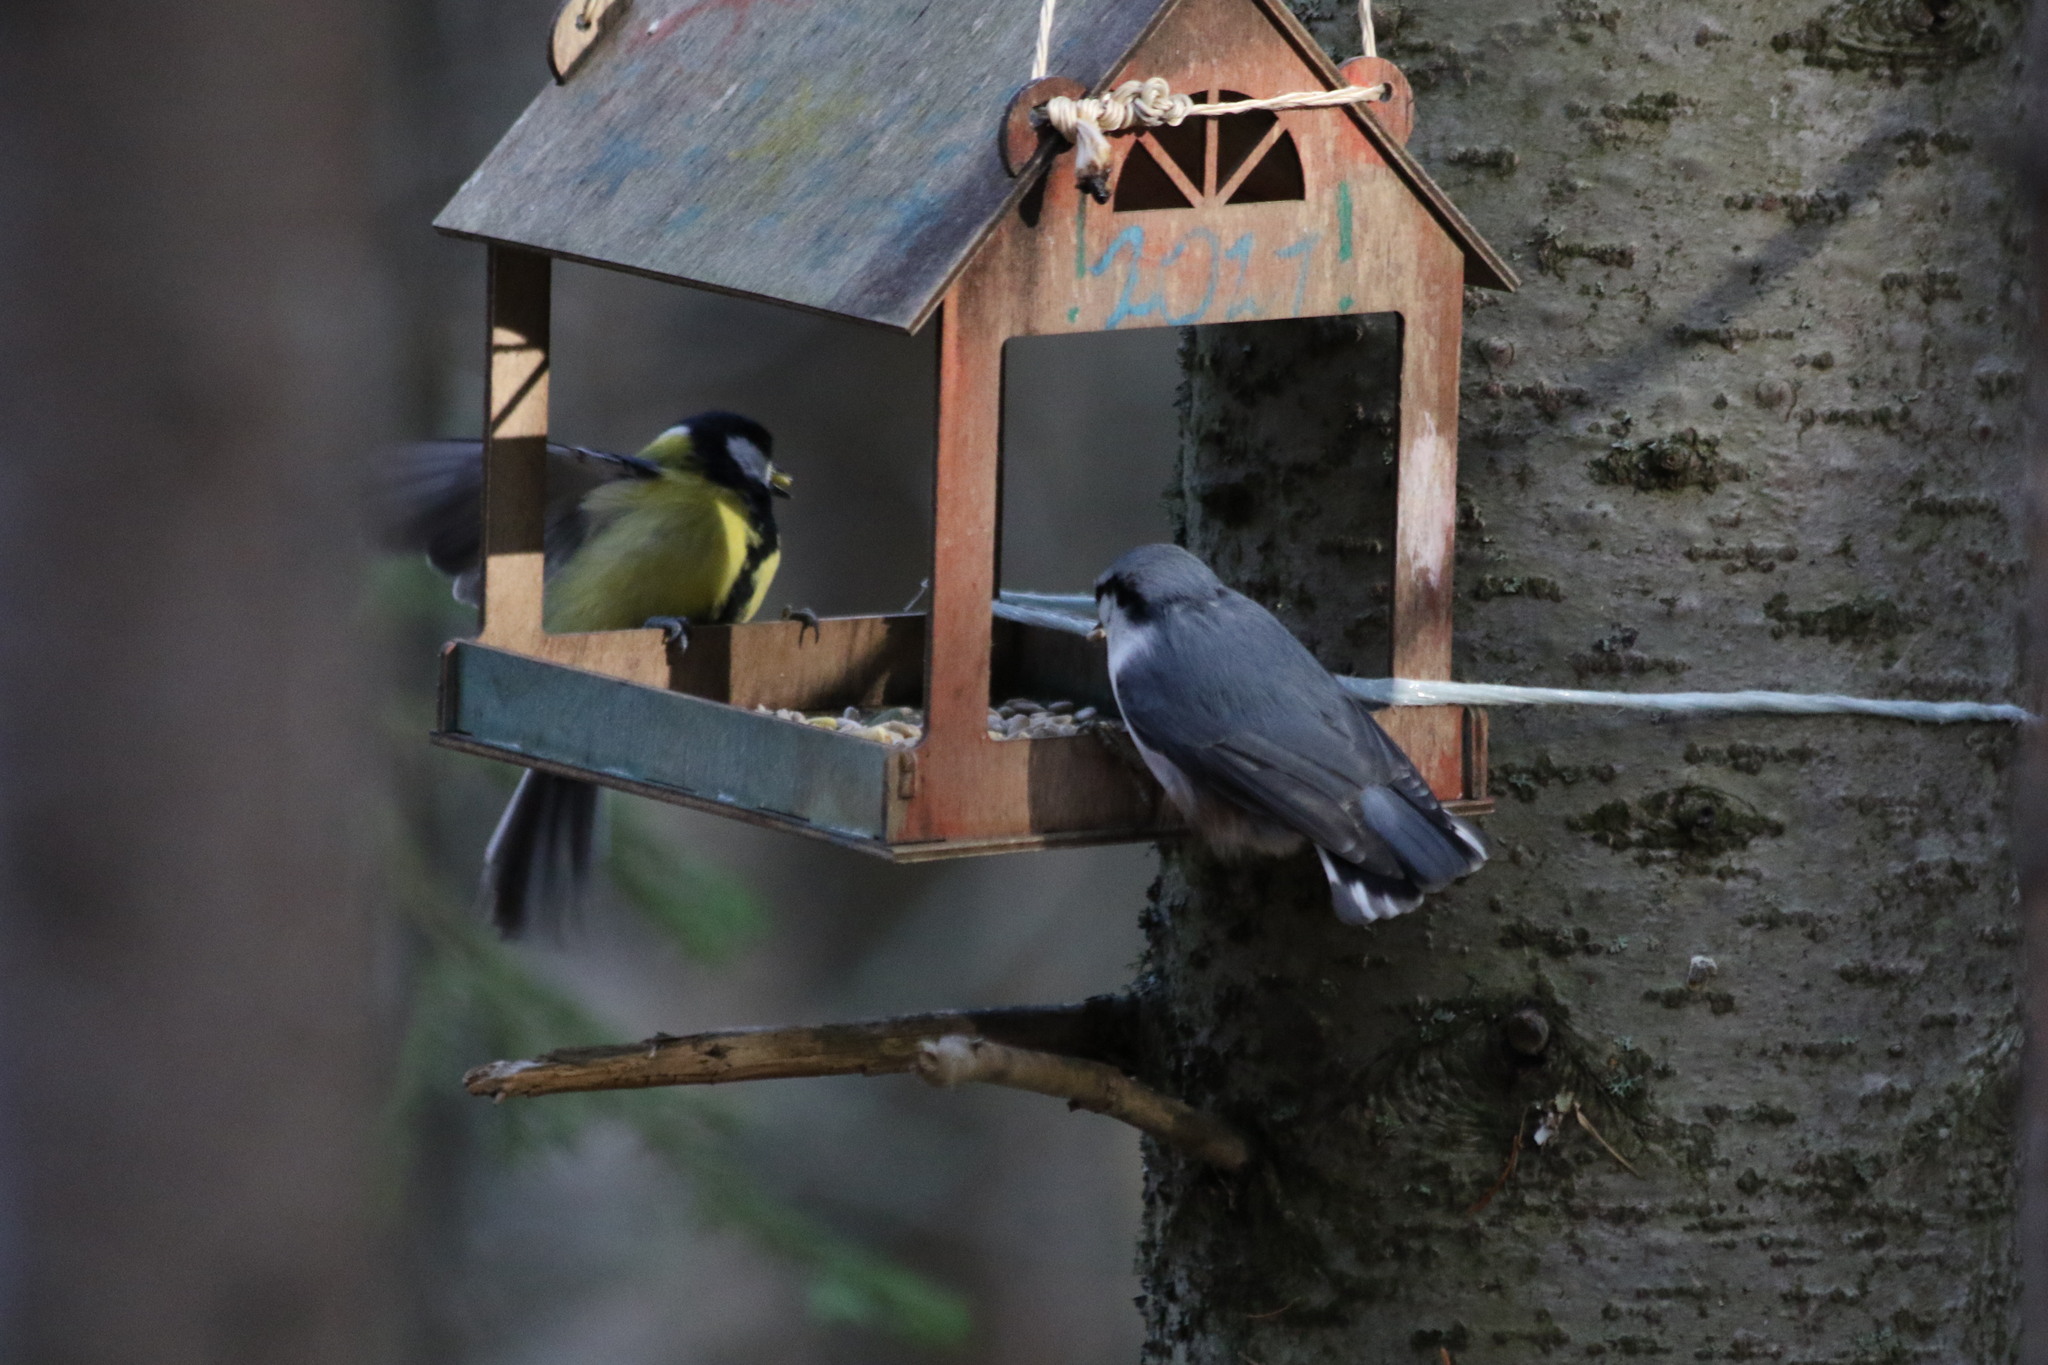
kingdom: Animalia
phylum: Chordata
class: Aves
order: Passeriformes
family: Paridae
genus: Parus
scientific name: Parus major
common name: Great tit
